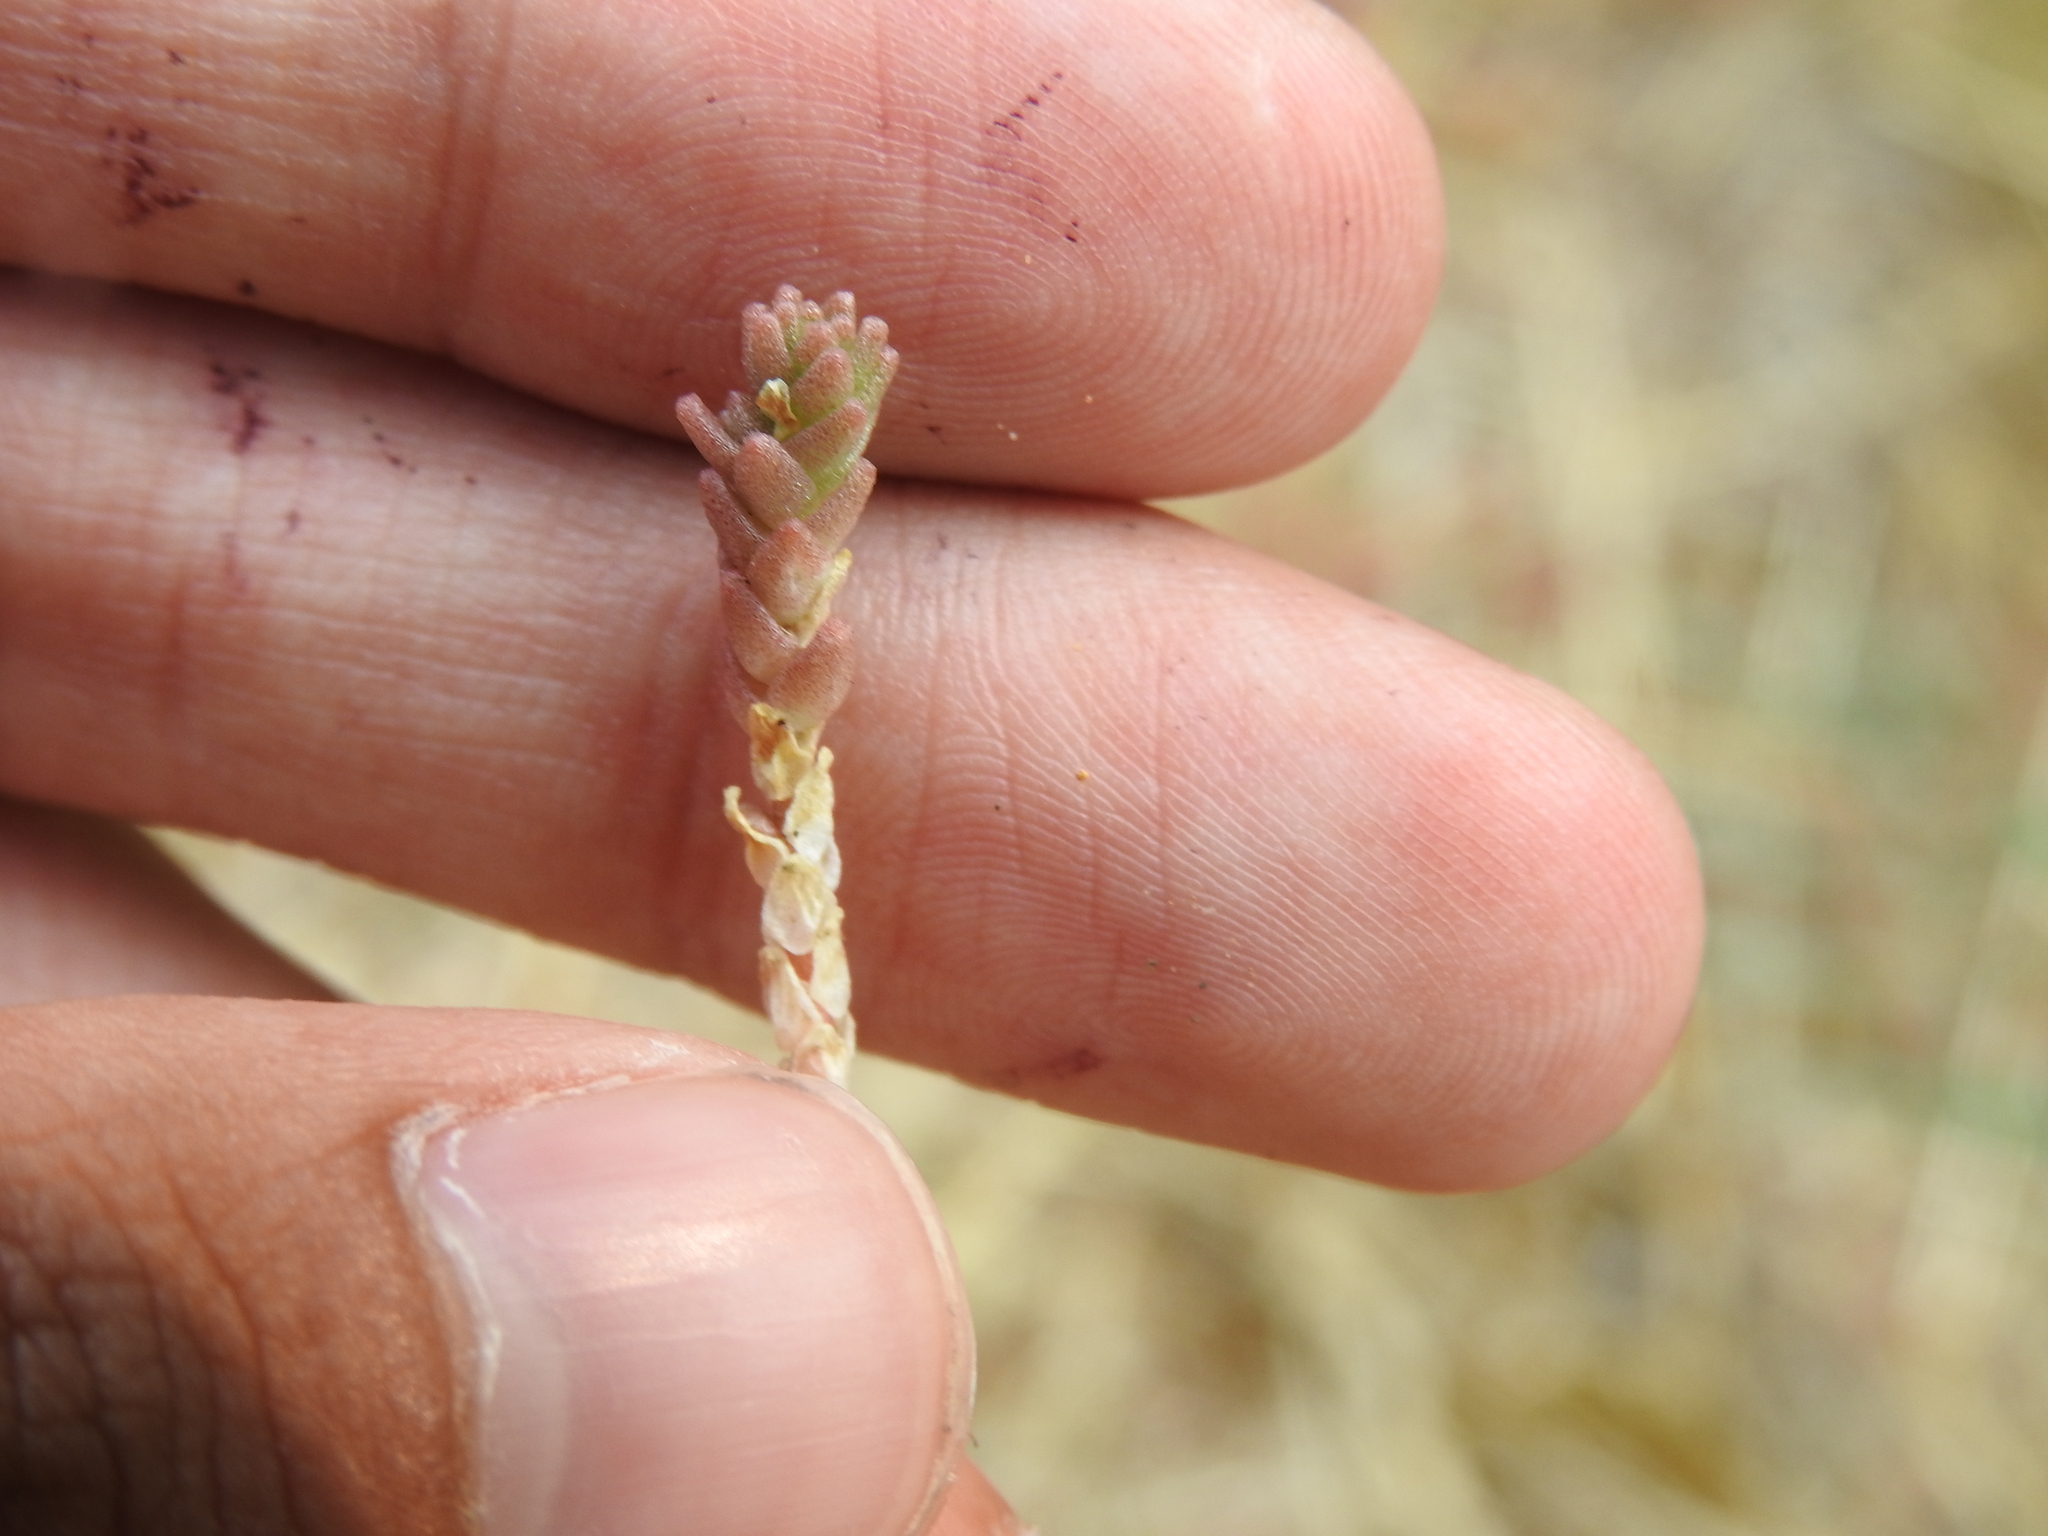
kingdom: Plantae
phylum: Tracheophyta
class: Magnoliopsida
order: Saxifragales
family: Crassulaceae
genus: Sedum
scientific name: Sedum acre
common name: Biting stonecrop
